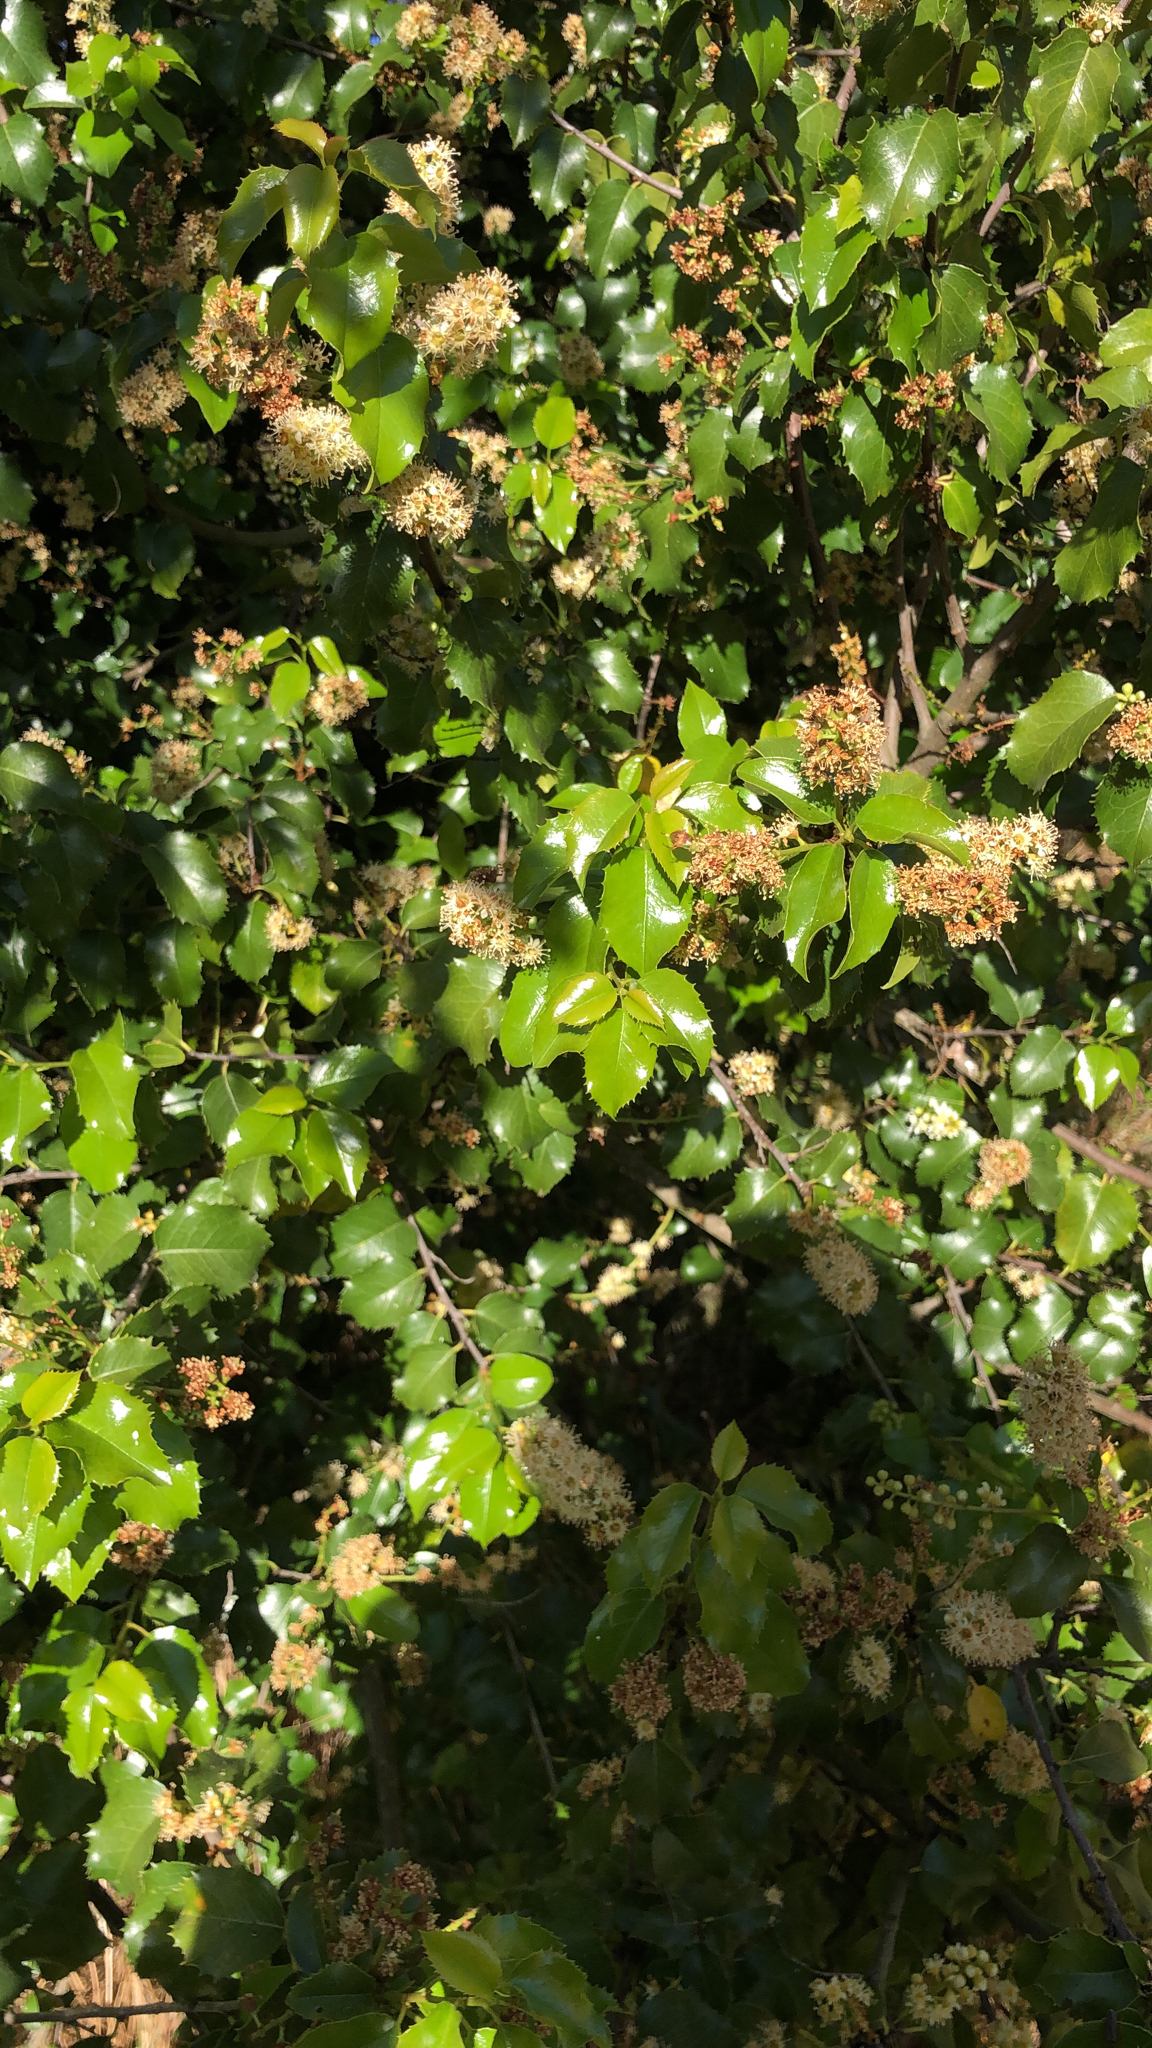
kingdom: Plantae
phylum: Tracheophyta
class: Magnoliopsida
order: Rosales
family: Rosaceae
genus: Prunus
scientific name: Prunus ilicifolia
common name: Hollyleaf cherry
